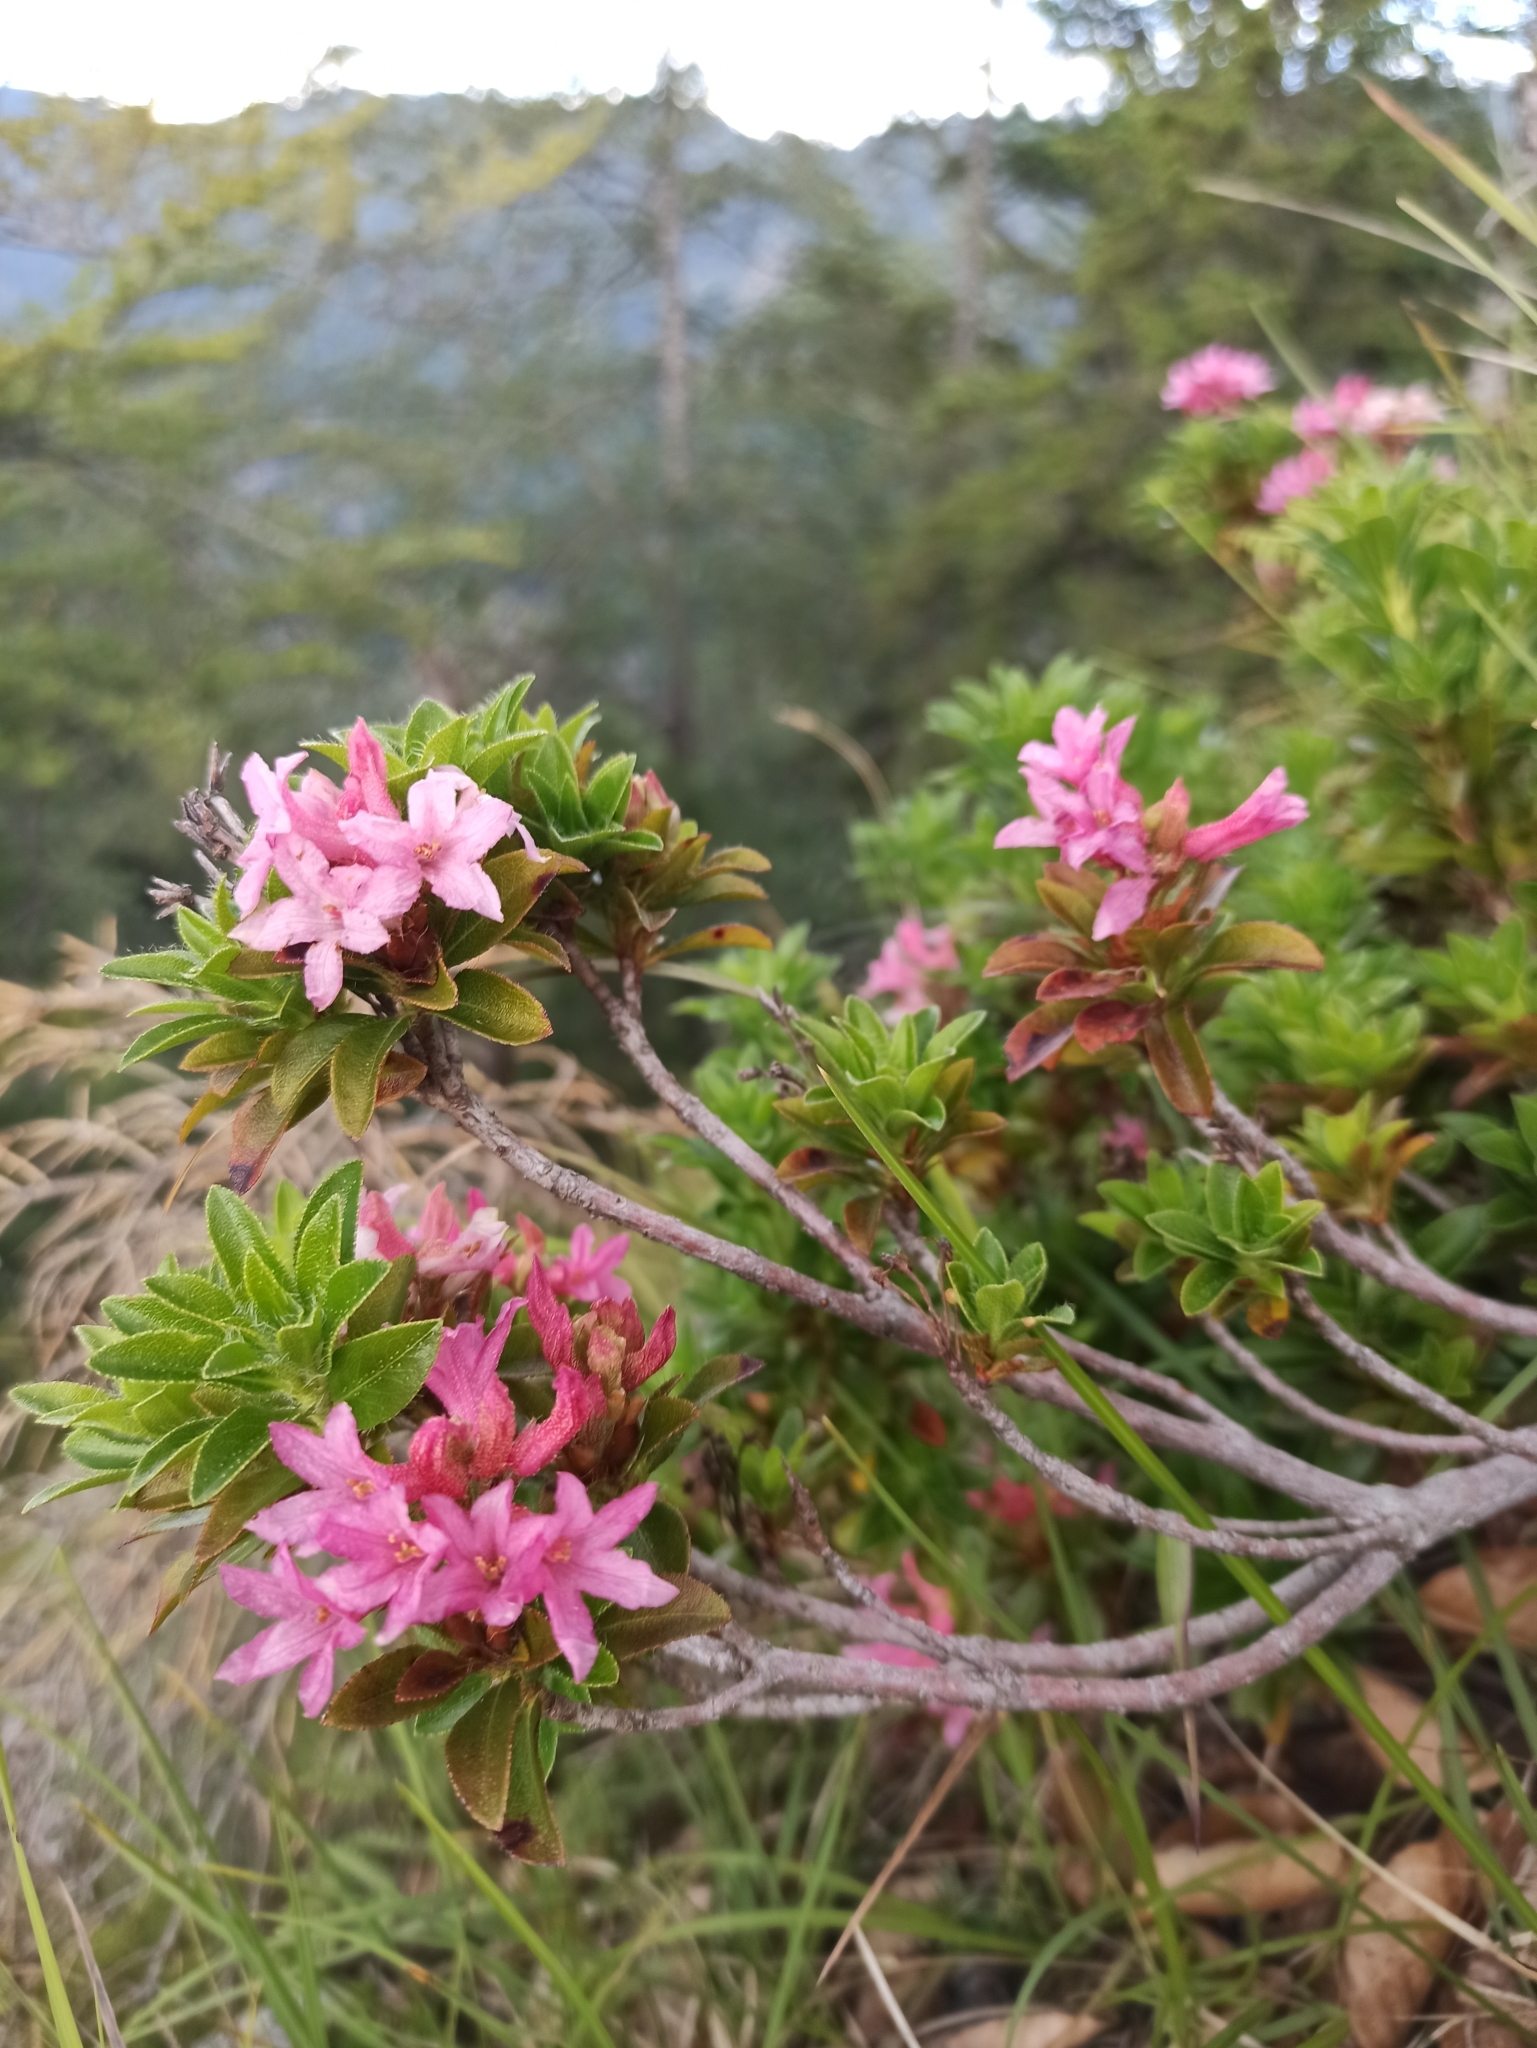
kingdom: Plantae
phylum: Tracheophyta
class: Magnoliopsida
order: Ericales
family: Ericaceae
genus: Rhododendron
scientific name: Rhododendron hirsutum
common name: Hairy alpenrose
